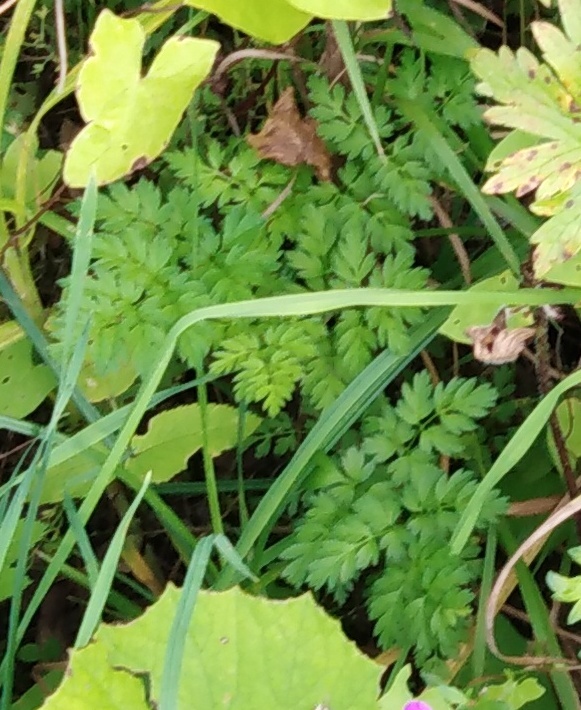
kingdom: Plantae
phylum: Tracheophyta
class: Magnoliopsida
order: Apiales
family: Apiaceae
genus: Anthriscus
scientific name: Anthriscus sylvestris
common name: Cow parsley
